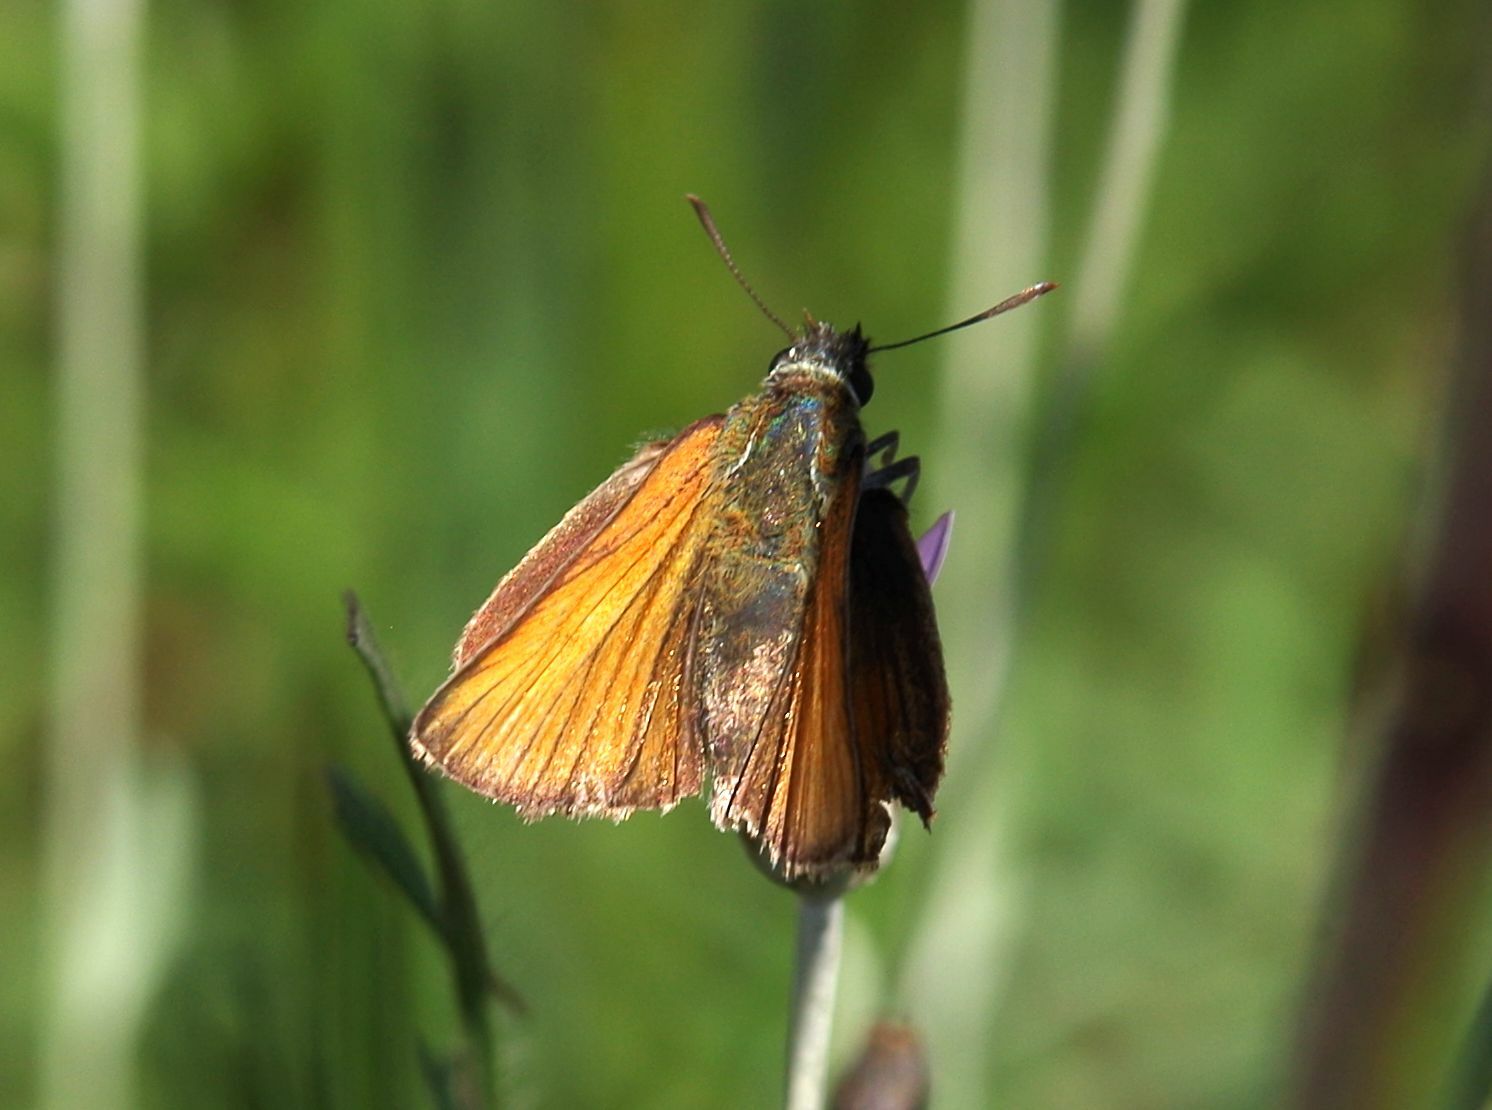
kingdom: Animalia
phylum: Arthropoda
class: Insecta
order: Lepidoptera
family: Hesperiidae
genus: Thymelicus
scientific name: Thymelicus sylvestris
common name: Small skipper
